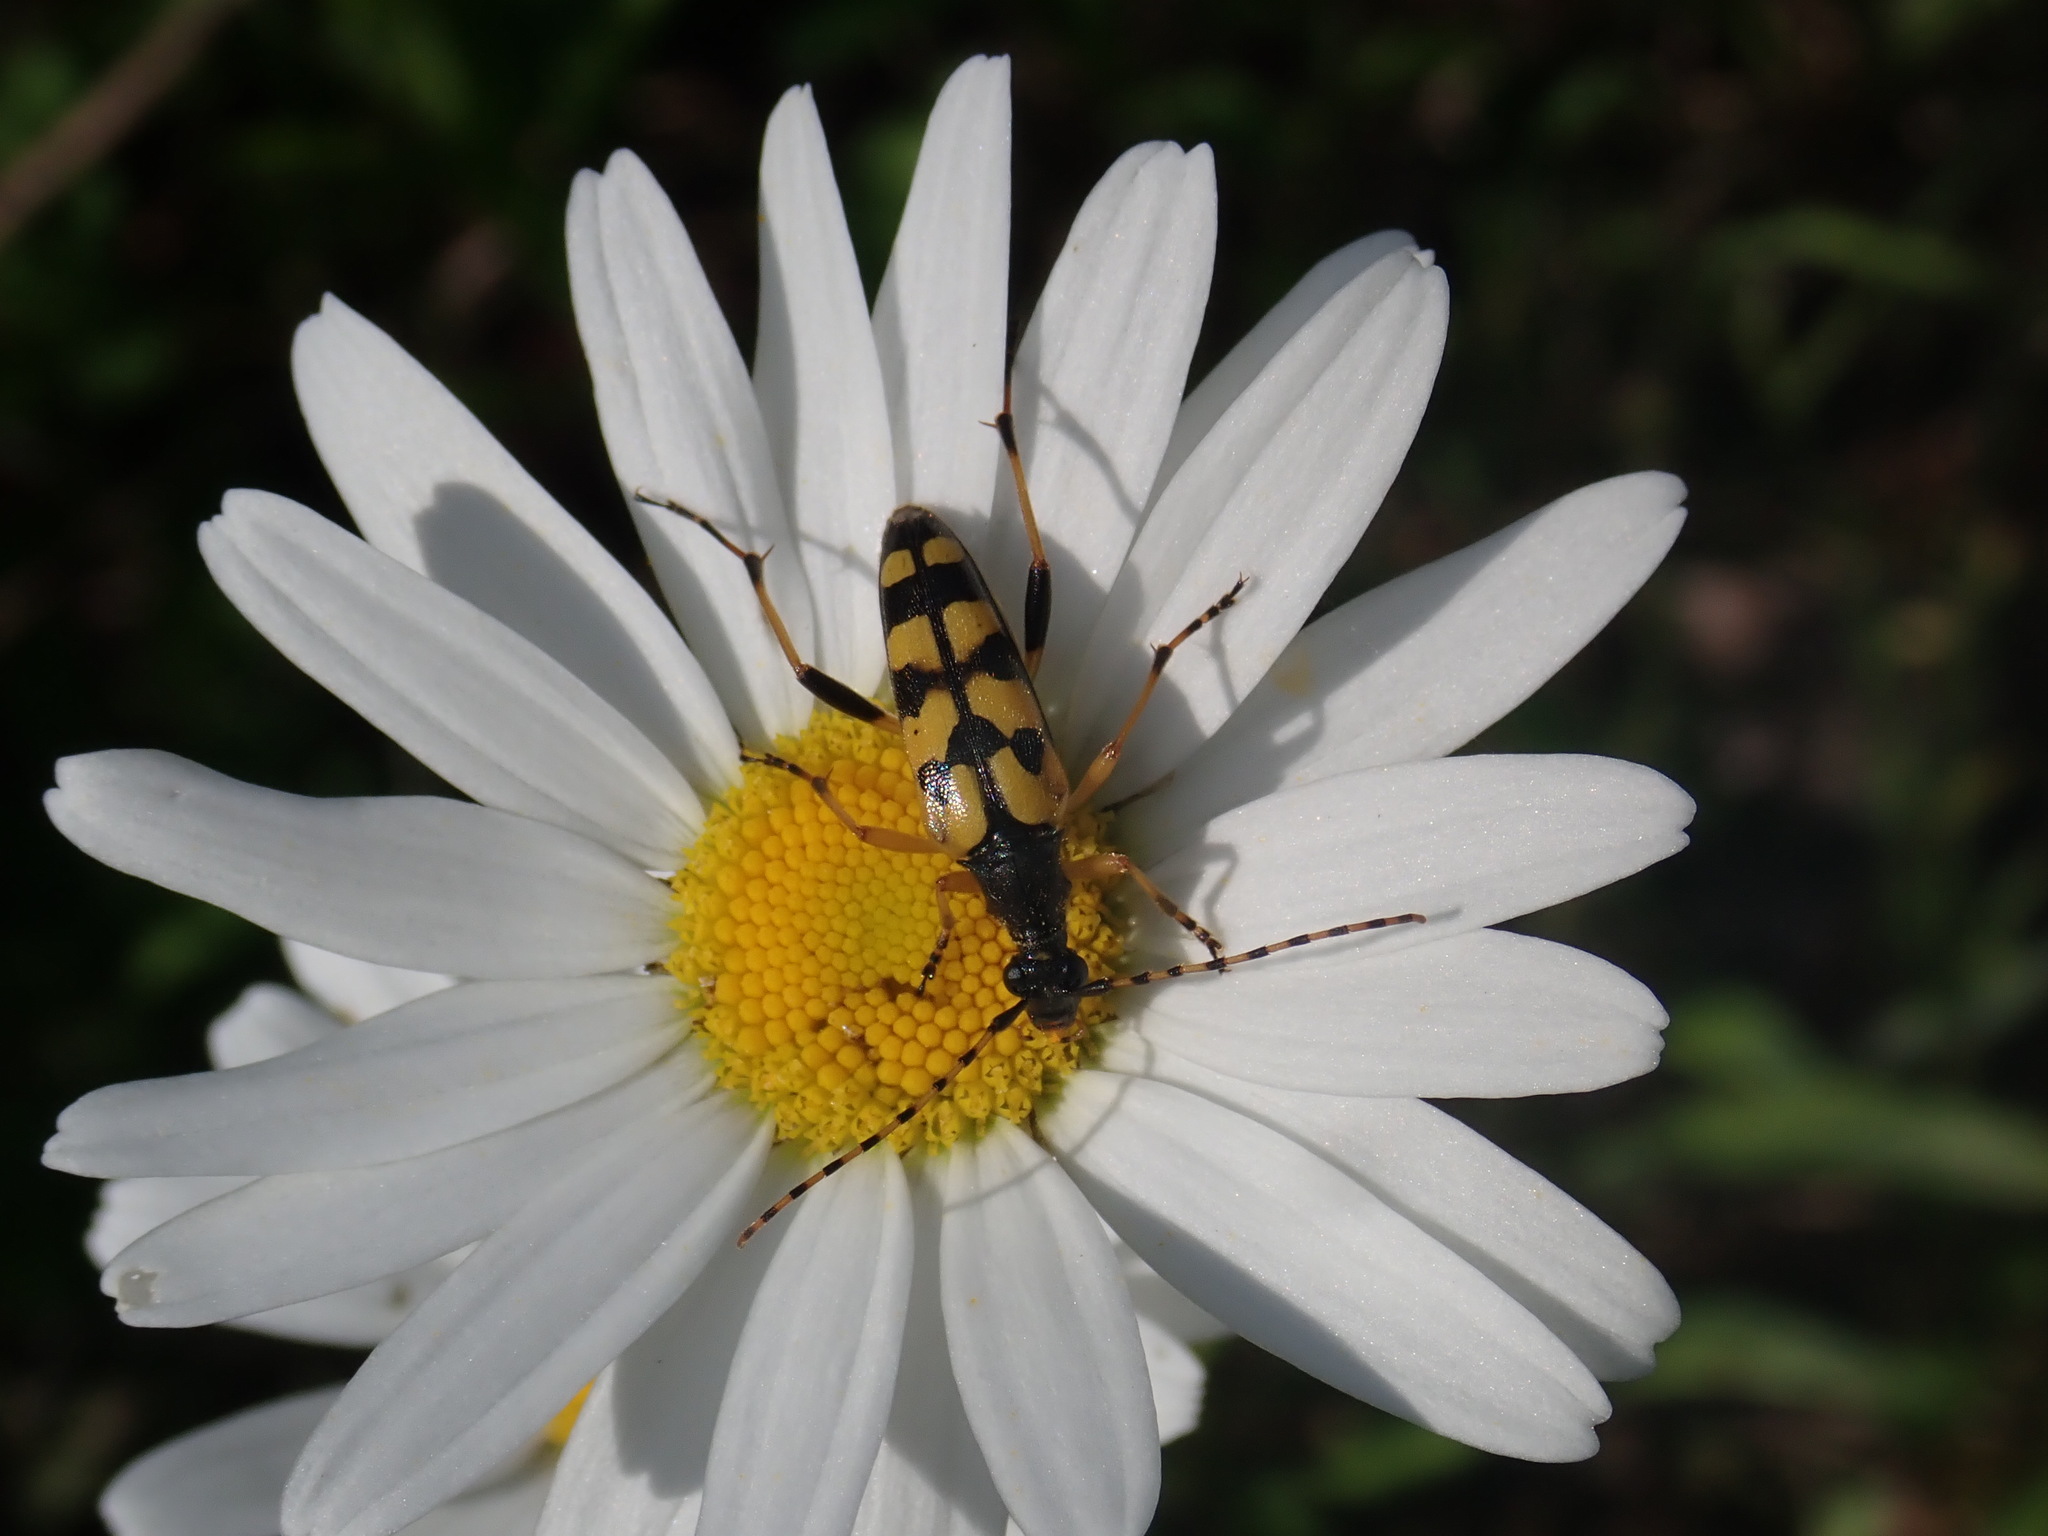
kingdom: Animalia
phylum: Arthropoda
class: Insecta
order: Coleoptera
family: Cerambycidae
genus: Rutpela
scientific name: Rutpela maculata
